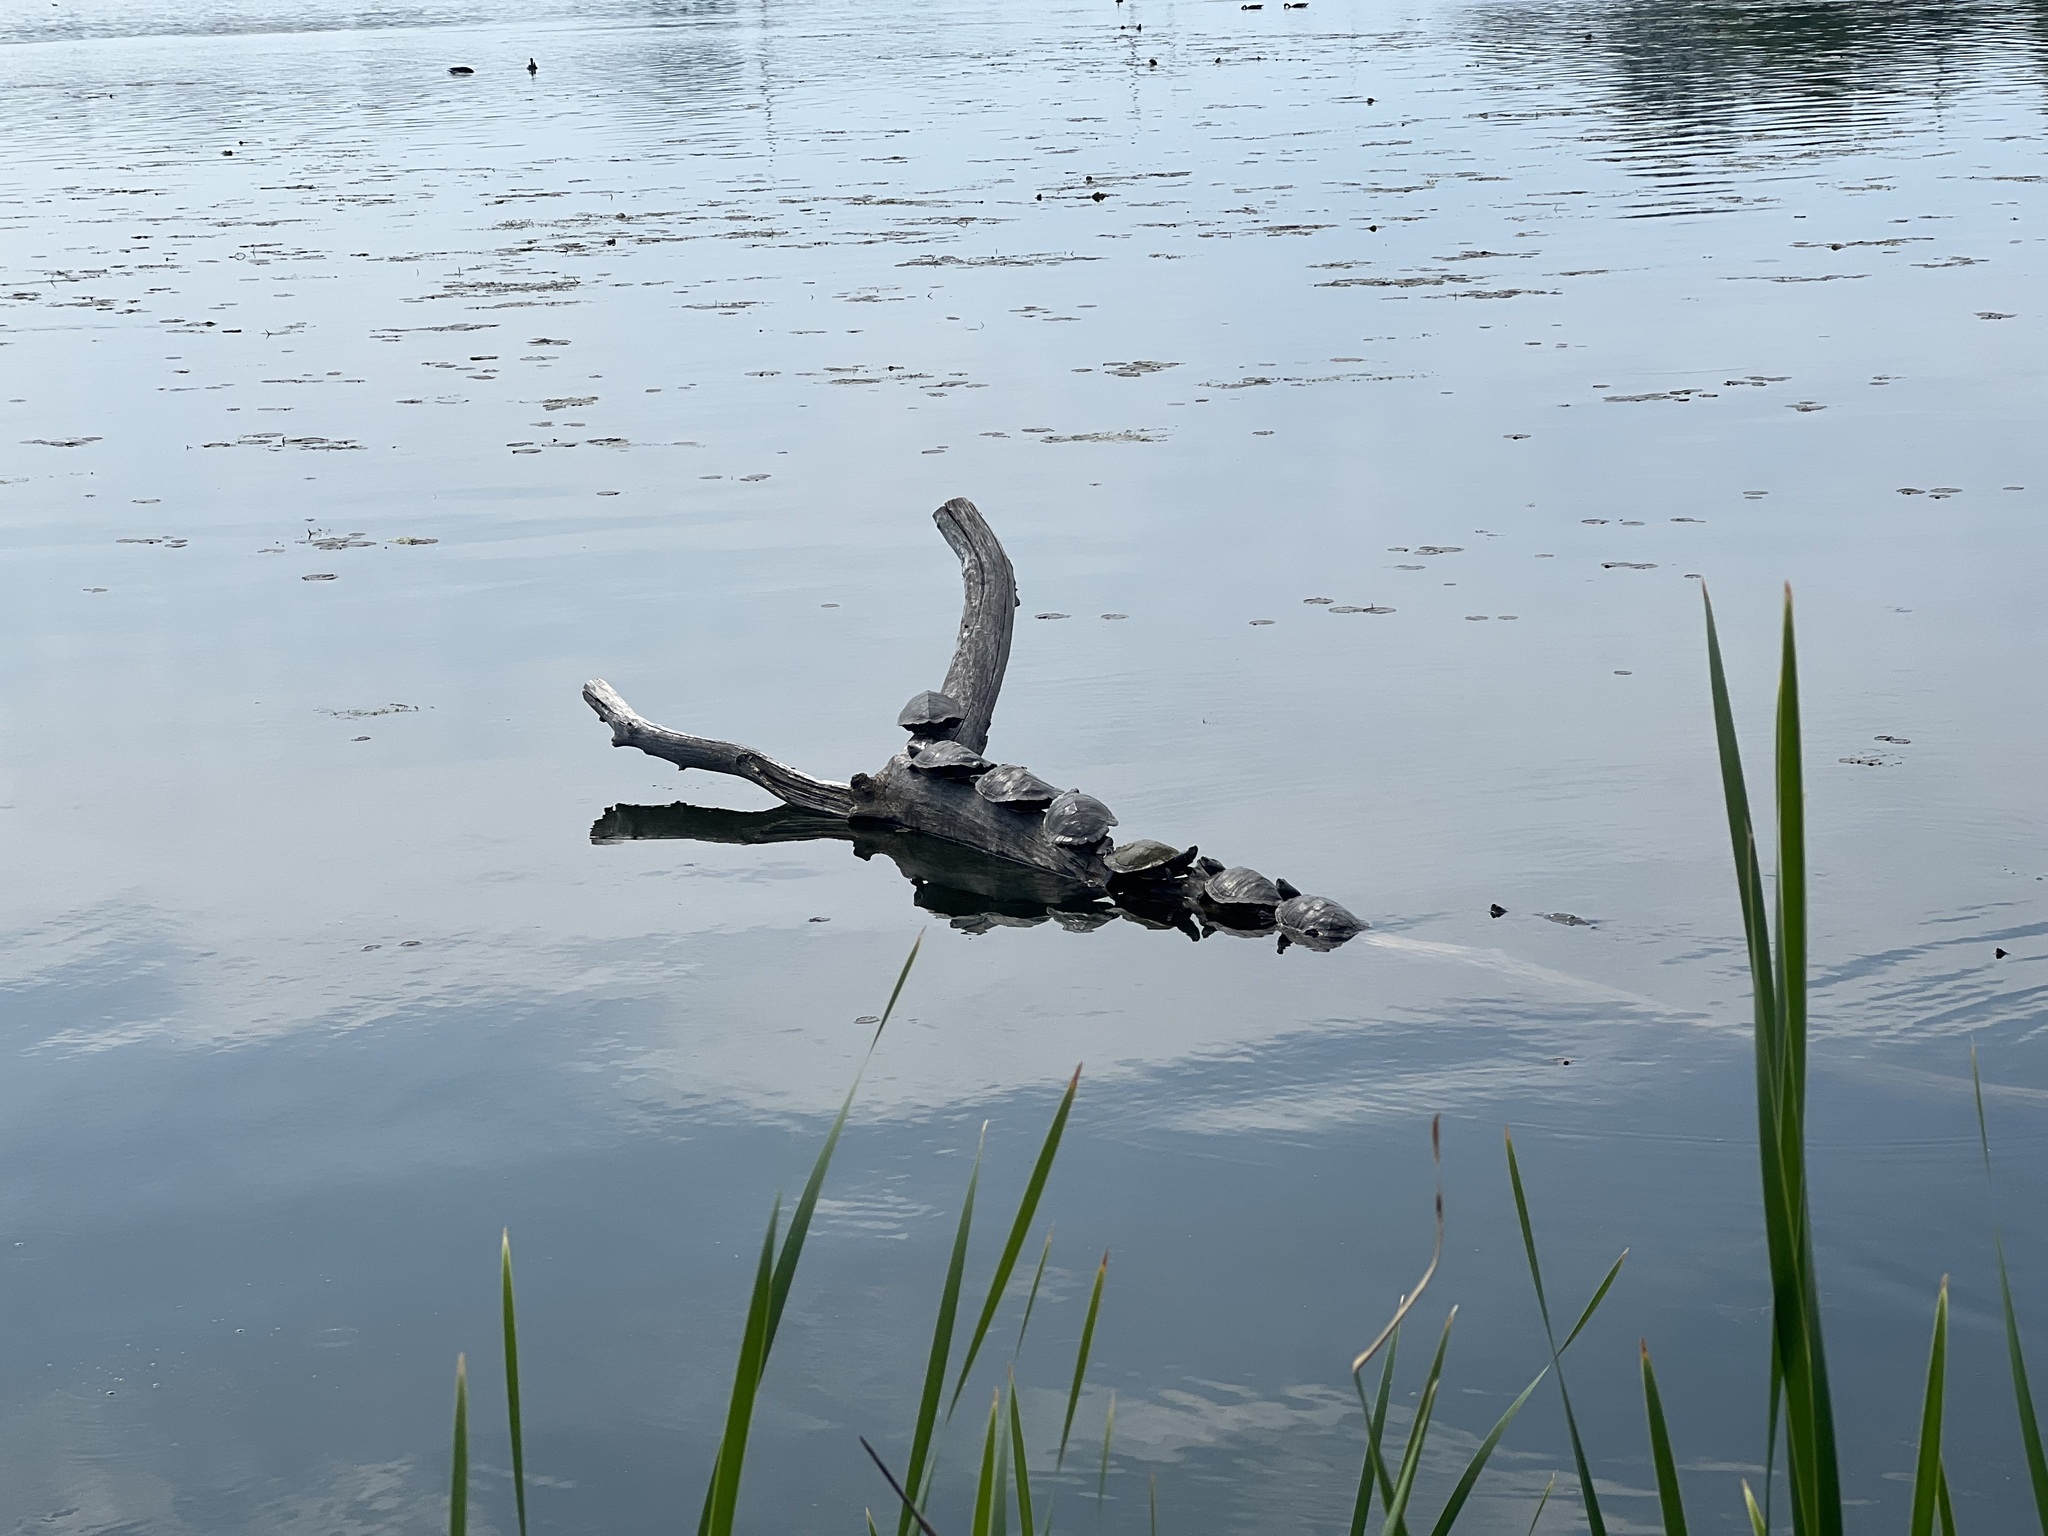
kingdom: Animalia
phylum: Chordata
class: Testudines
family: Emydidae
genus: Graptemys
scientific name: Graptemys geographica
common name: Common map turtle
